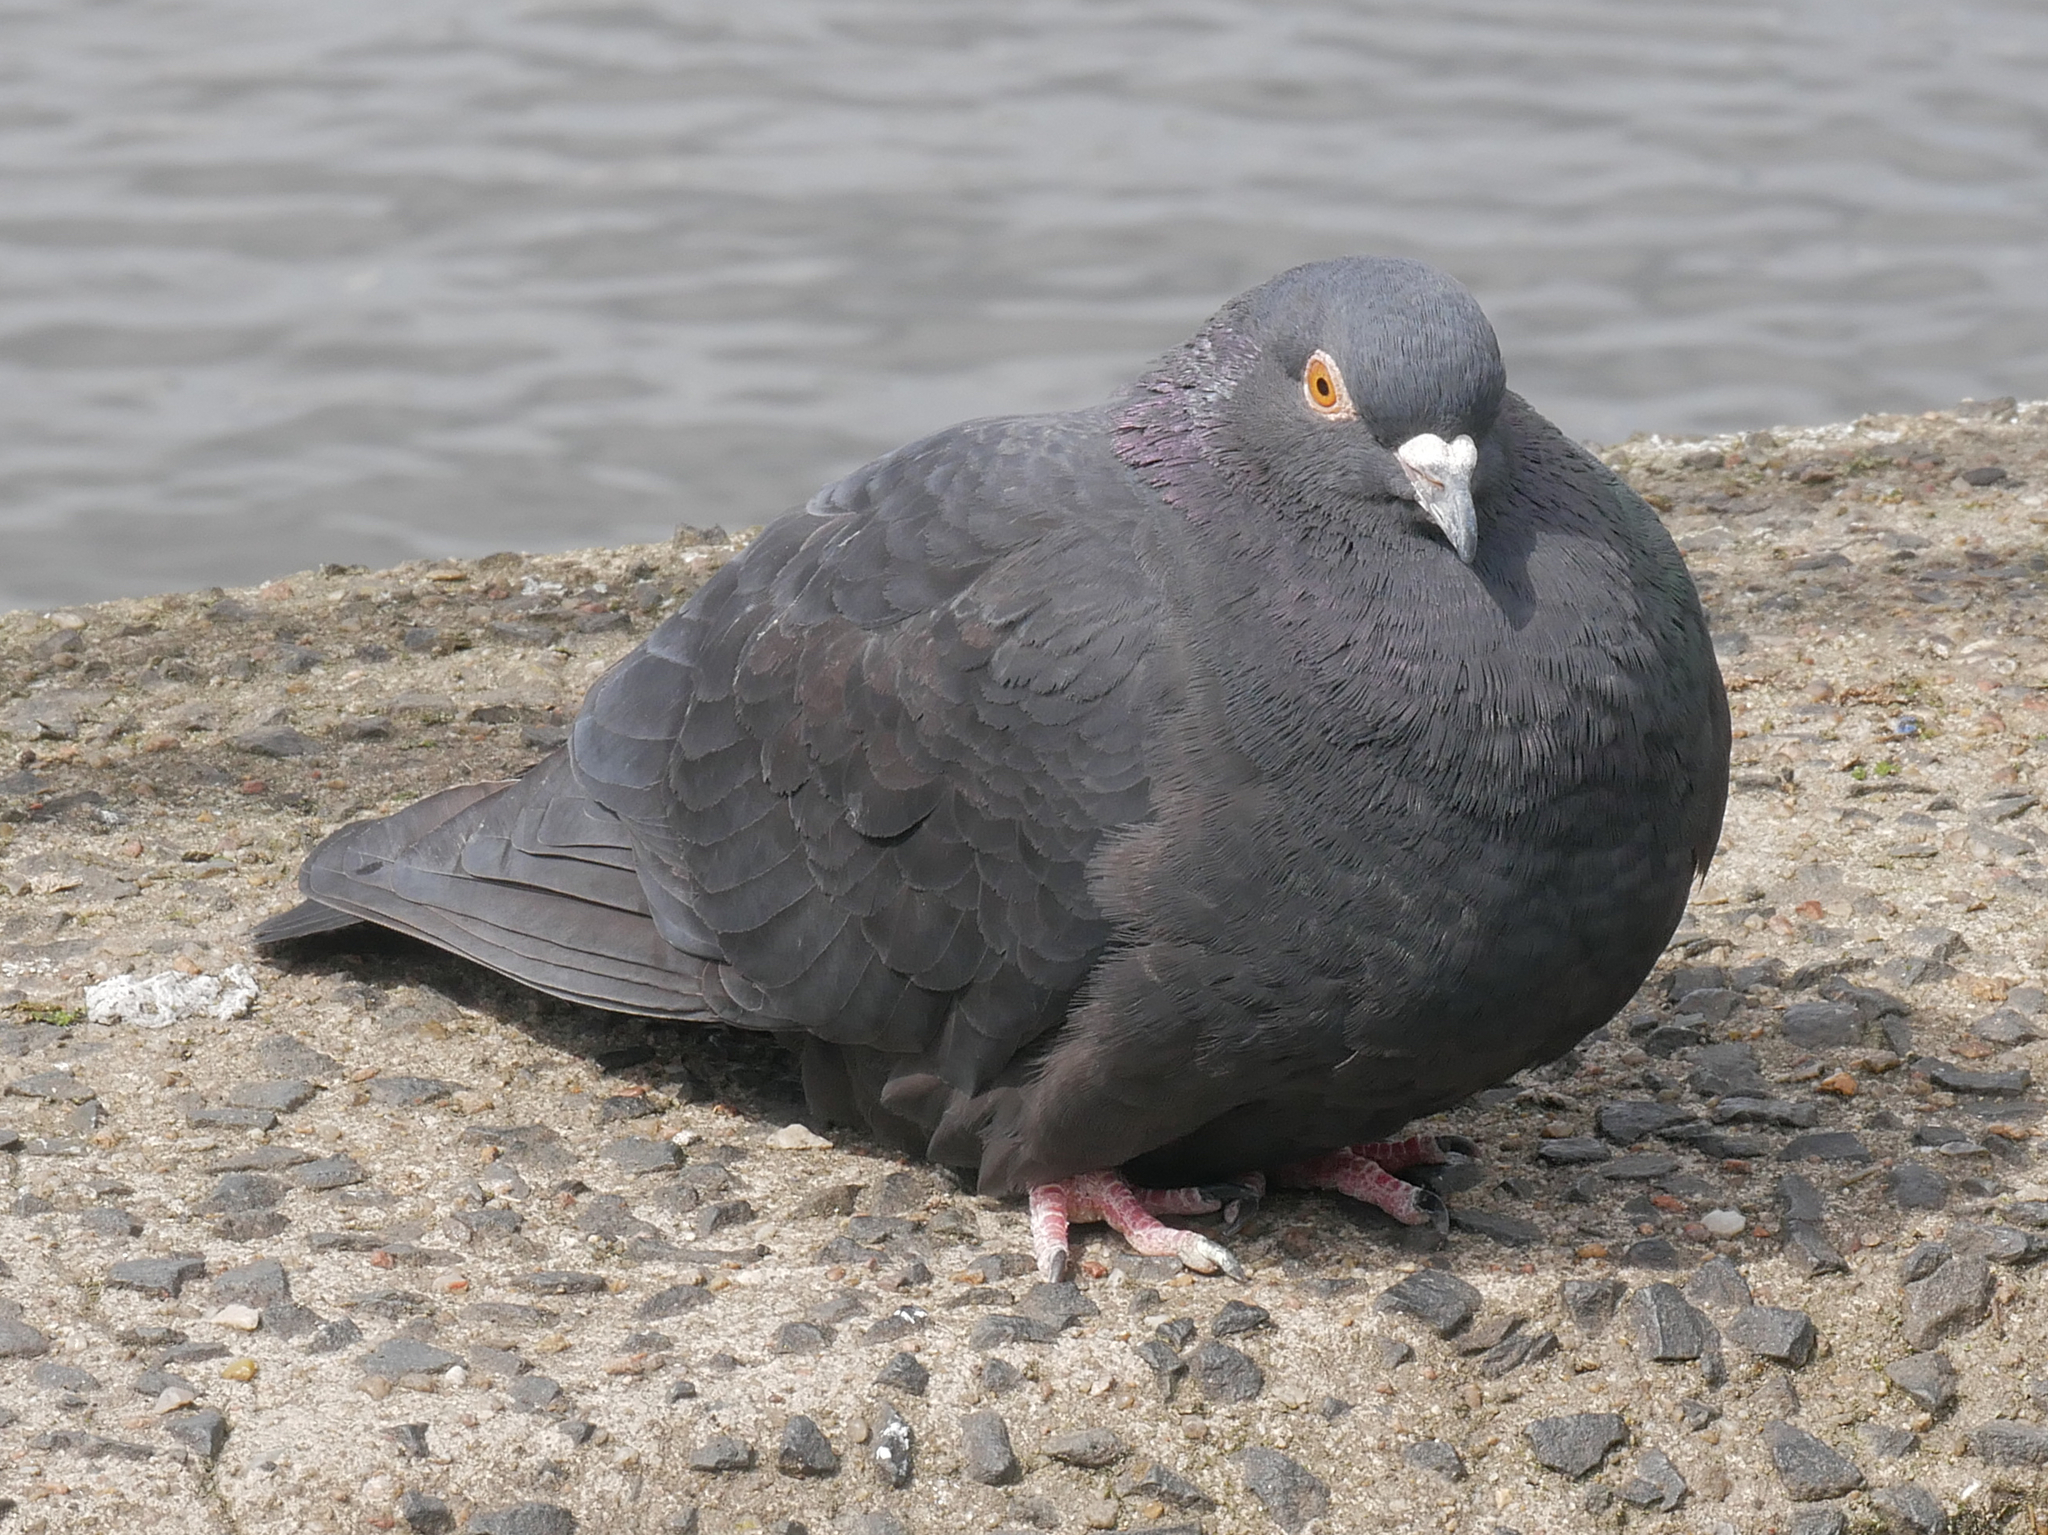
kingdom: Animalia
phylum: Chordata
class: Aves
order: Columbiformes
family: Columbidae
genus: Columba
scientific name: Columba livia
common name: Rock pigeon
